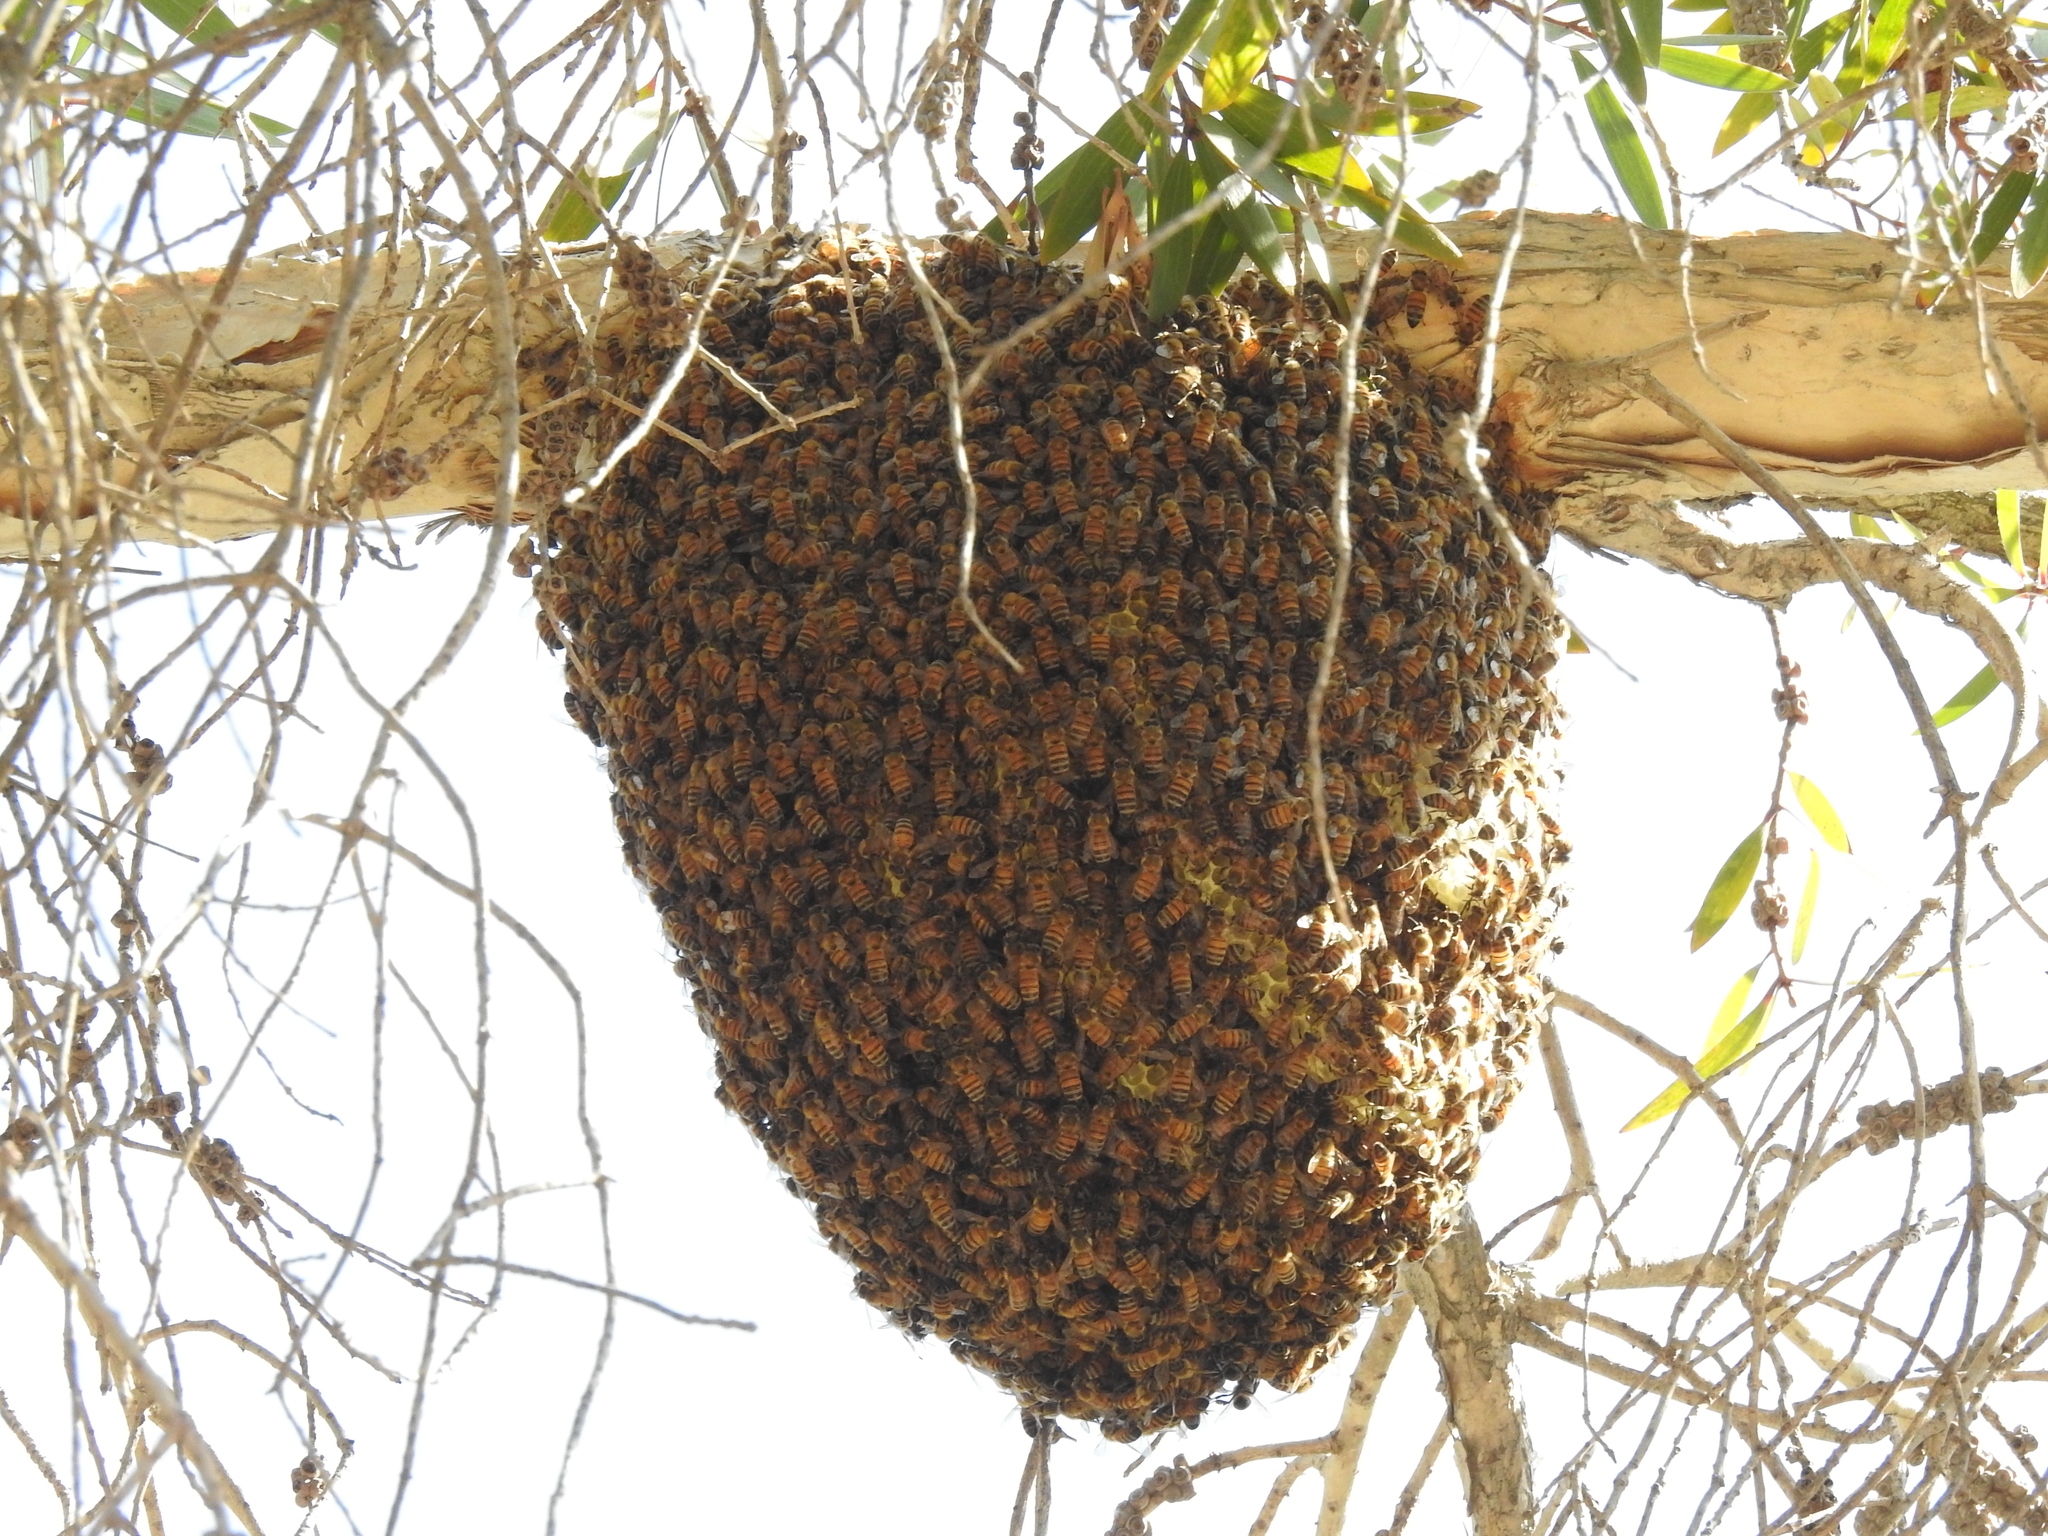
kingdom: Animalia
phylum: Arthropoda
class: Insecta
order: Hymenoptera
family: Apidae
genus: Apis
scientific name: Apis mellifera
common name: Honey bee
